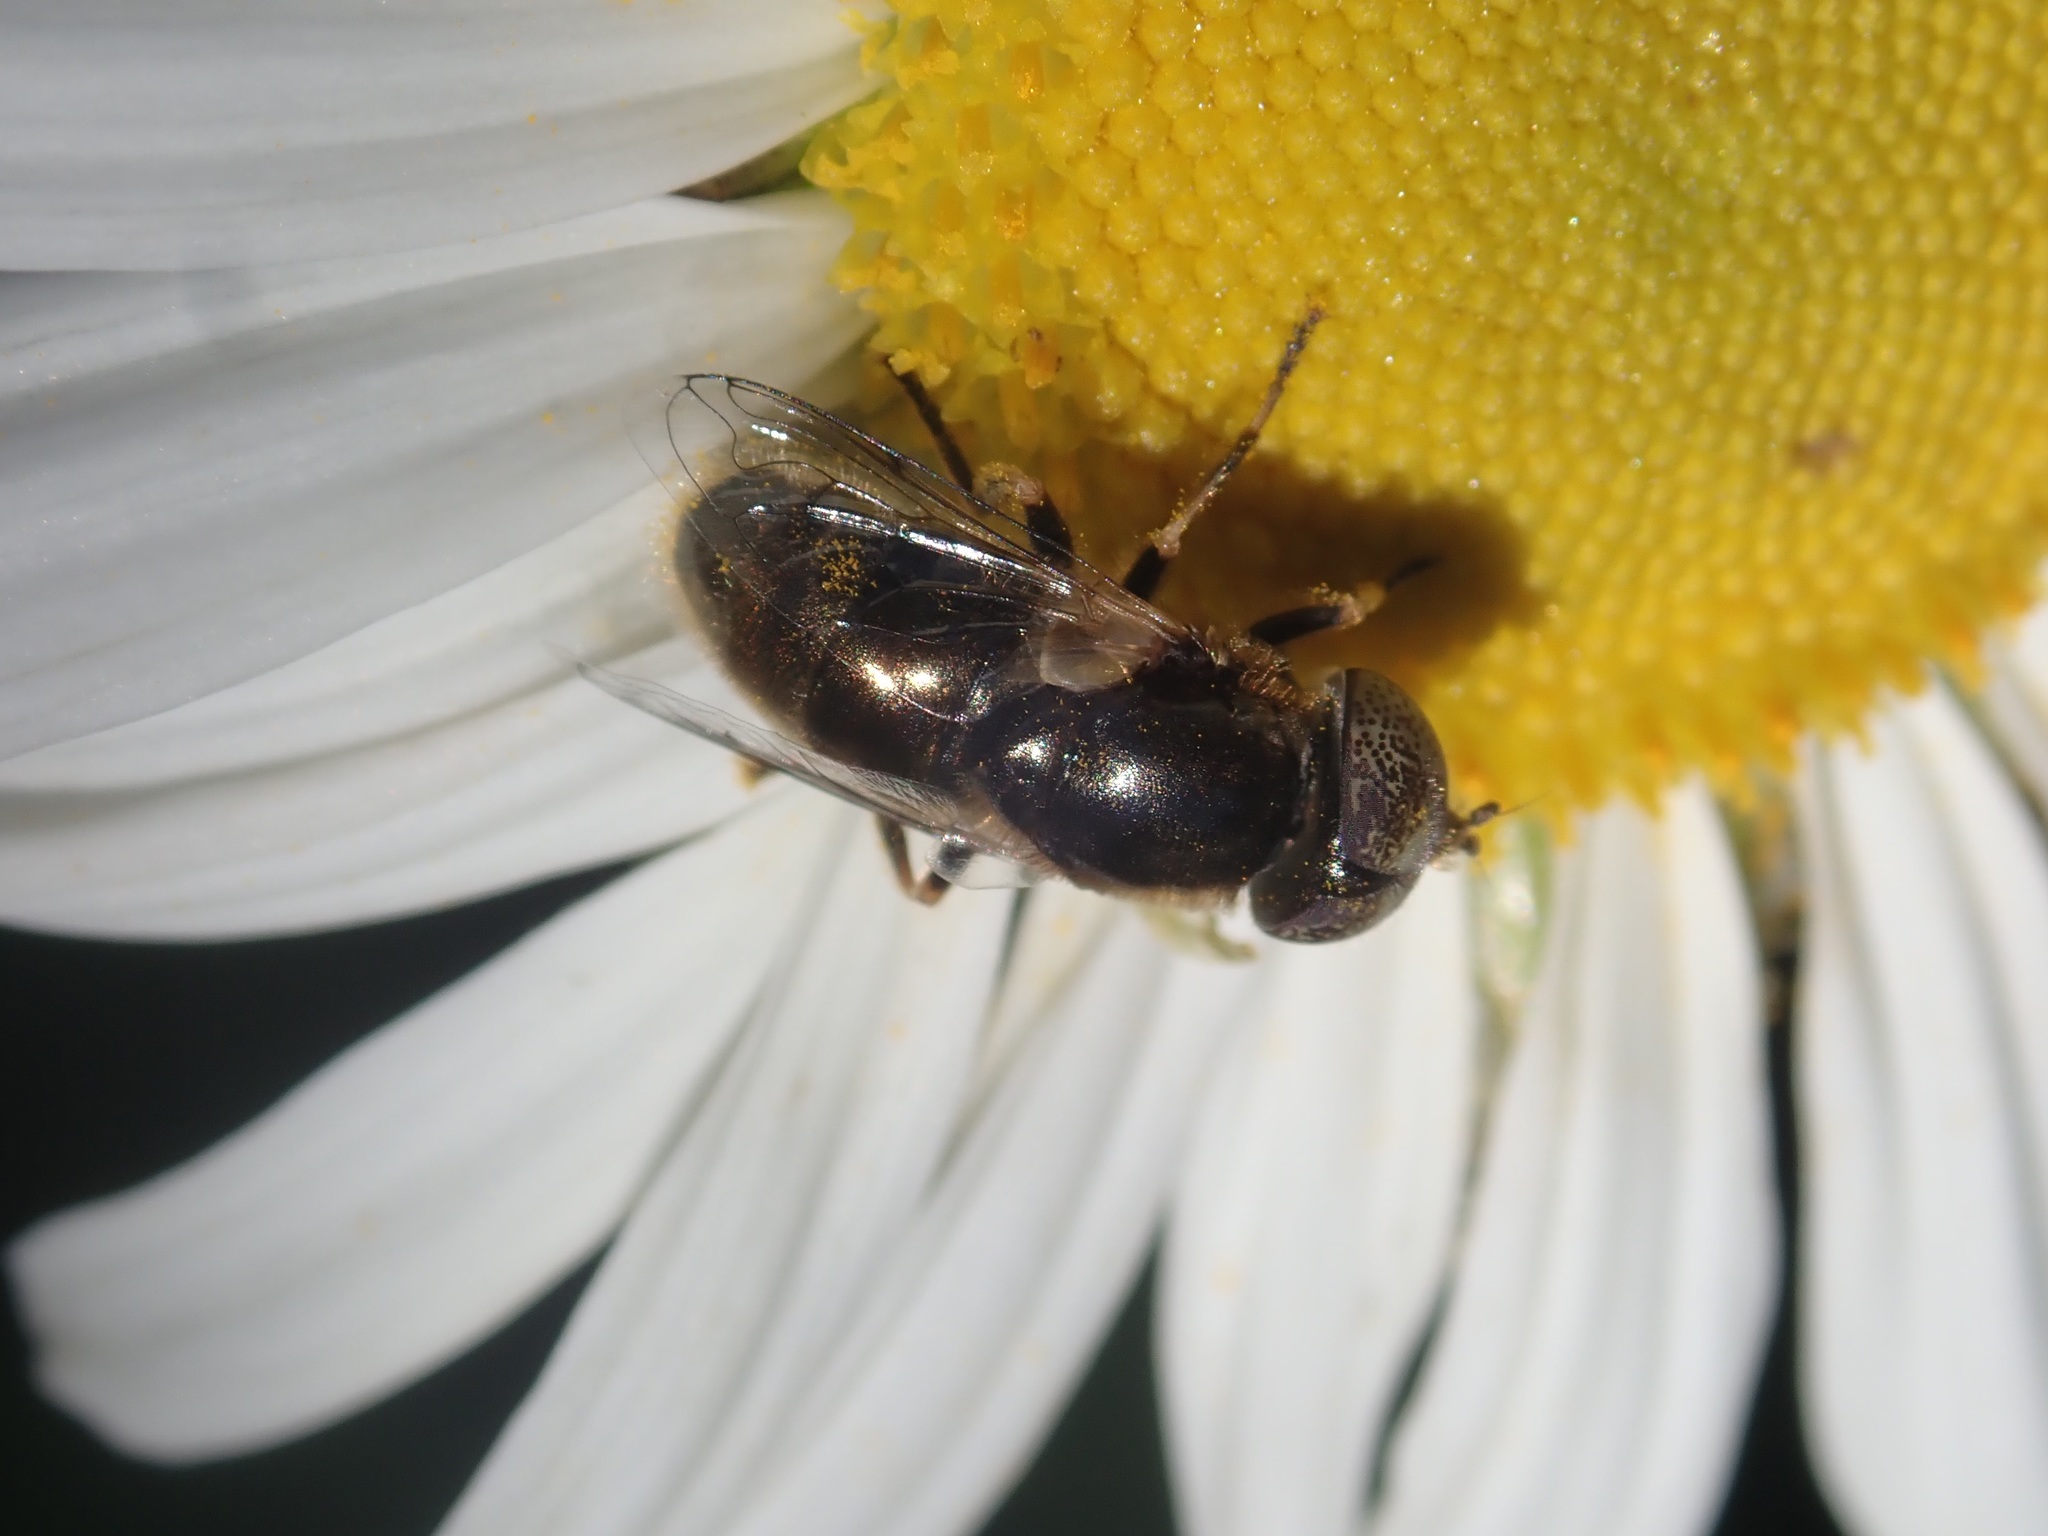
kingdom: Animalia
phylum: Arthropoda
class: Insecta
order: Diptera
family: Syrphidae
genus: Eristalinus
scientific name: Eristalinus aeneus
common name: Syrphid fly
